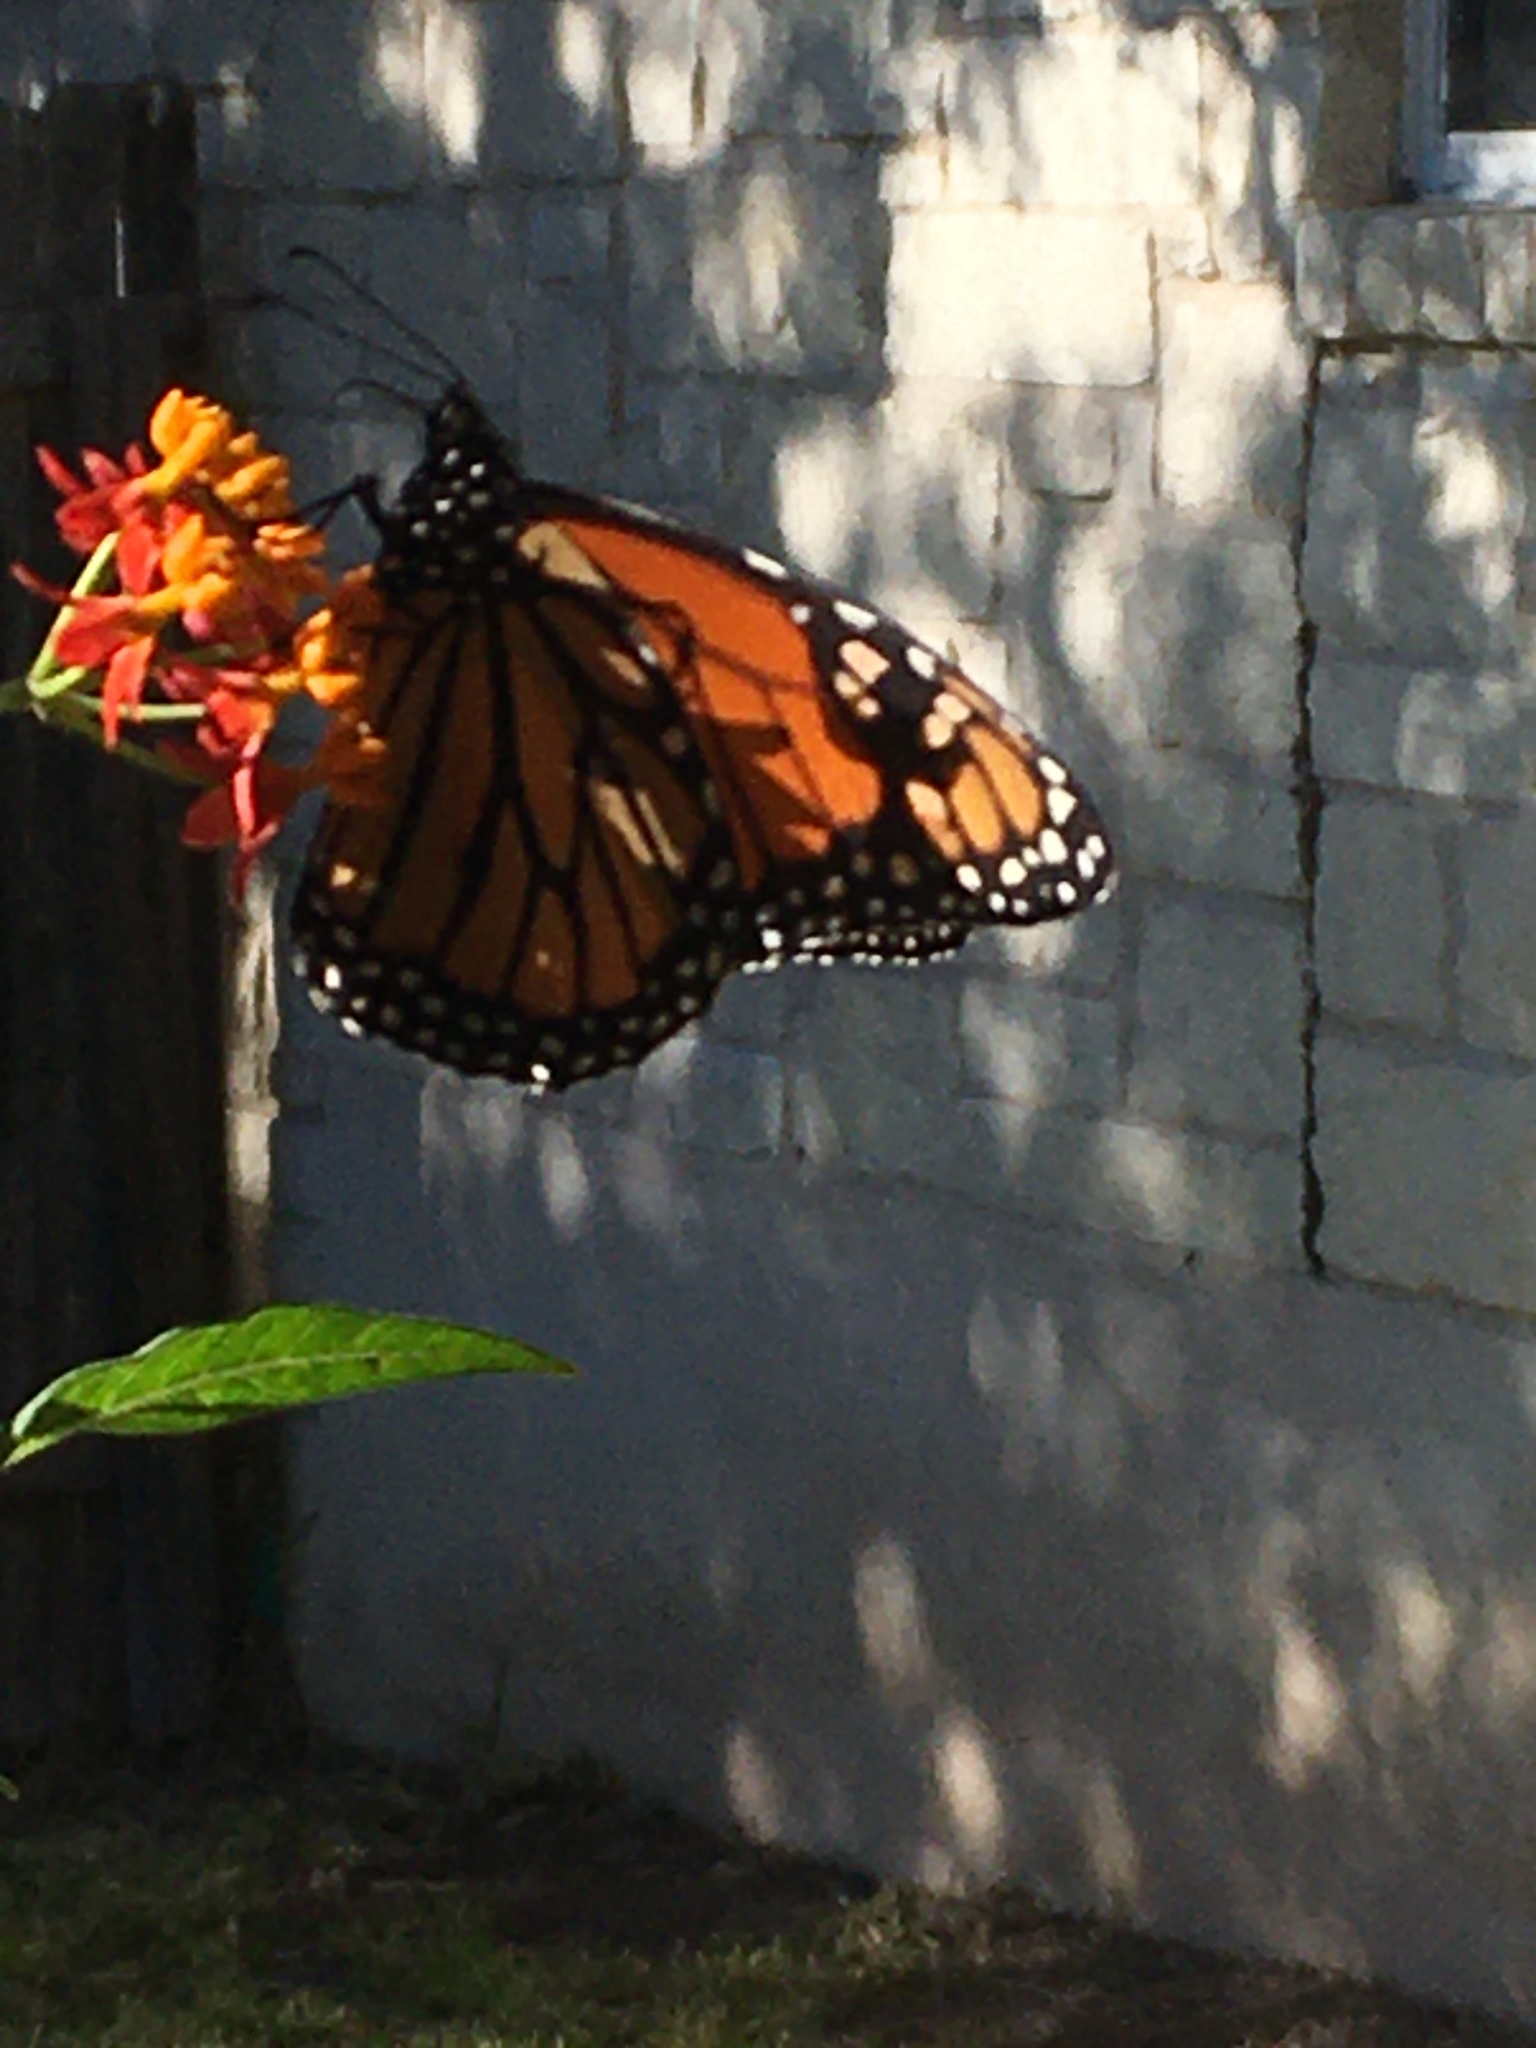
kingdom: Animalia
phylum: Arthropoda
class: Insecta
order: Lepidoptera
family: Nymphalidae
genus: Danaus
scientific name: Danaus plexippus
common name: Monarch
